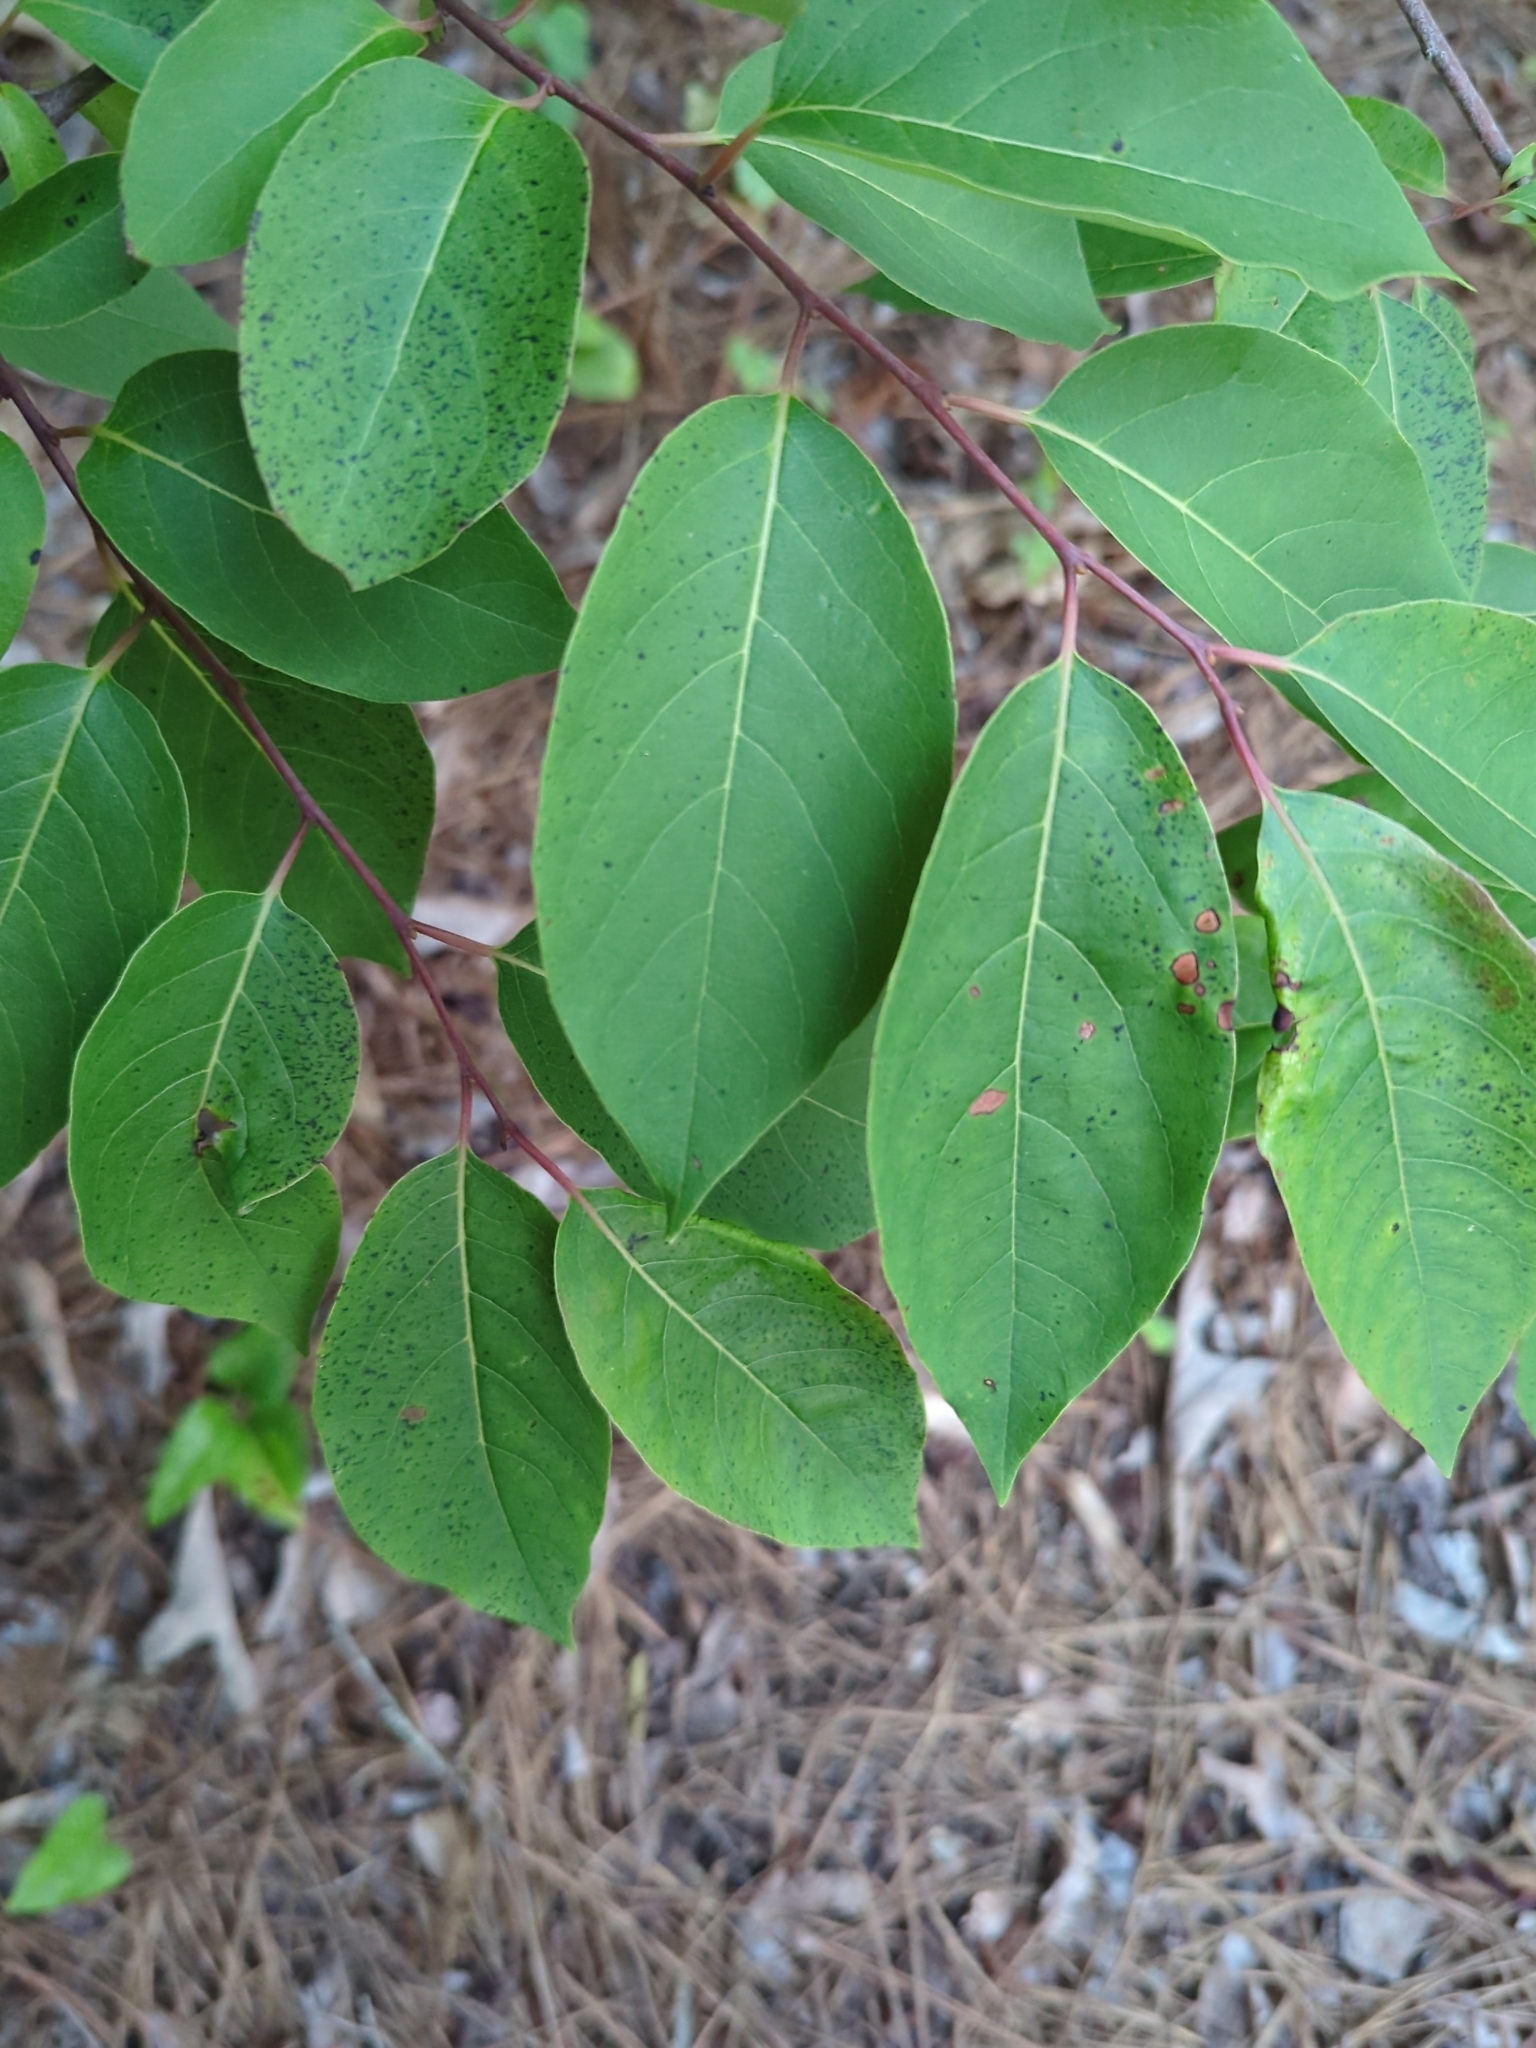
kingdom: Plantae
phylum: Tracheophyta
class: Magnoliopsida
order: Ericales
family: Ebenaceae
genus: Diospyros
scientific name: Diospyros virginiana
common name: Persimmon
